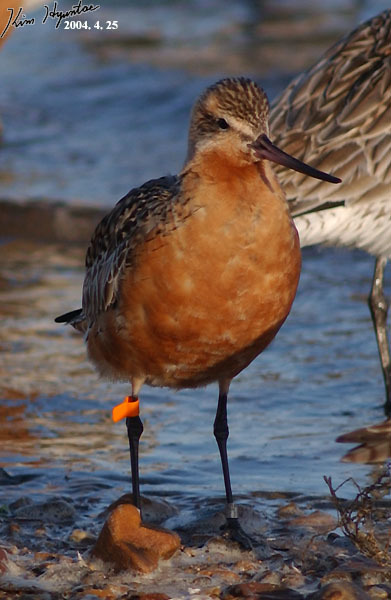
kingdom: Animalia
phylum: Chordata
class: Aves
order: Charadriiformes
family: Scolopacidae
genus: Limosa
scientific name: Limosa lapponica
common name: Bar-tailed godwit
